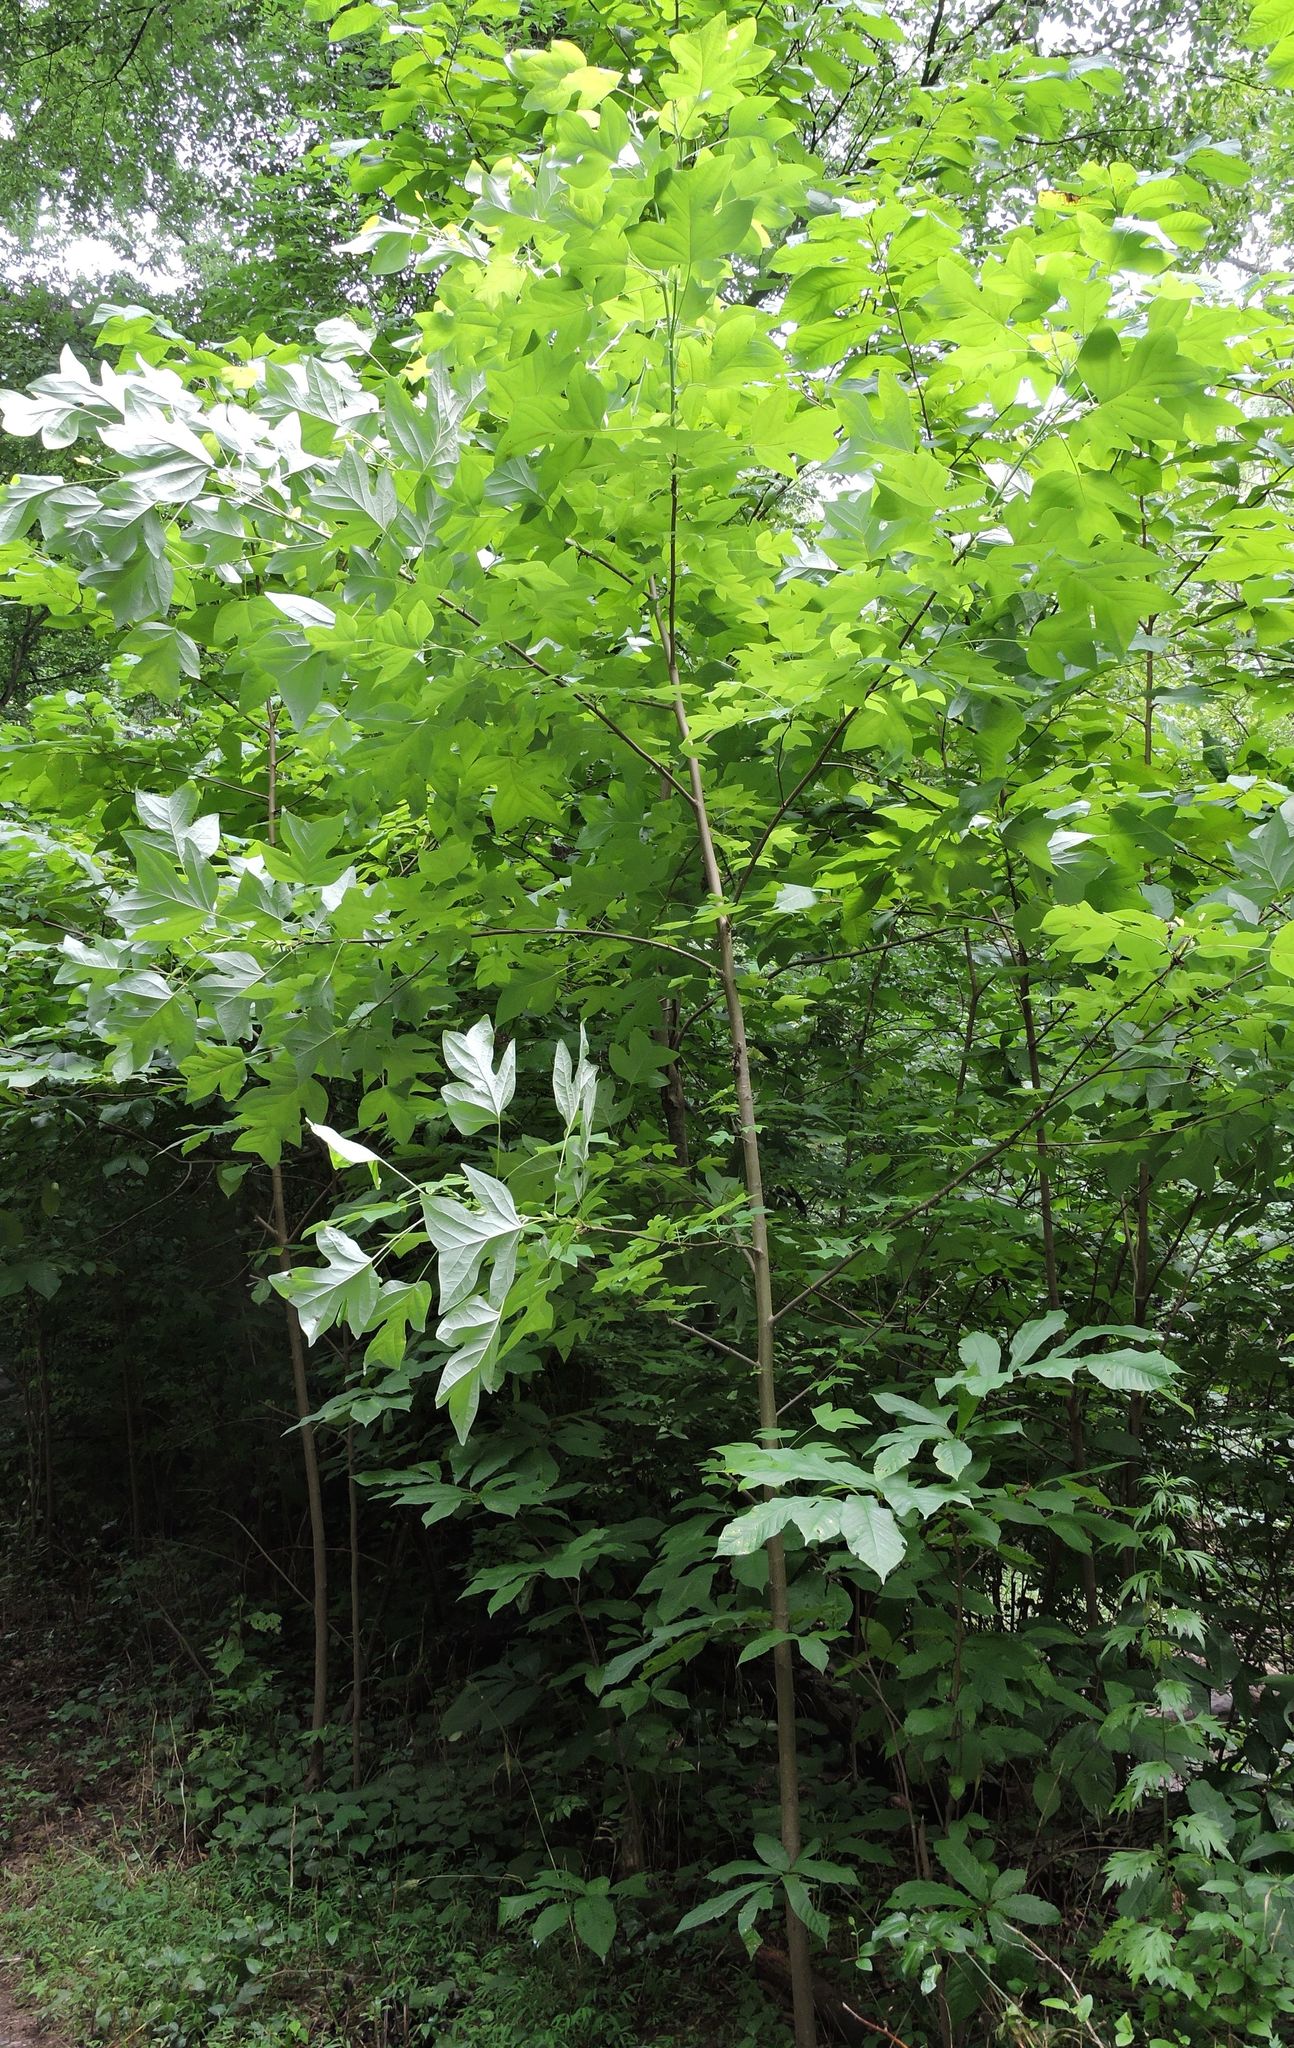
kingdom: Plantae
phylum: Tracheophyta
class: Magnoliopsida
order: Magnoliales
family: Magnoliaceae
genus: Liriodendron
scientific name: Liriodendron tulipifera
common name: Tulip tree
